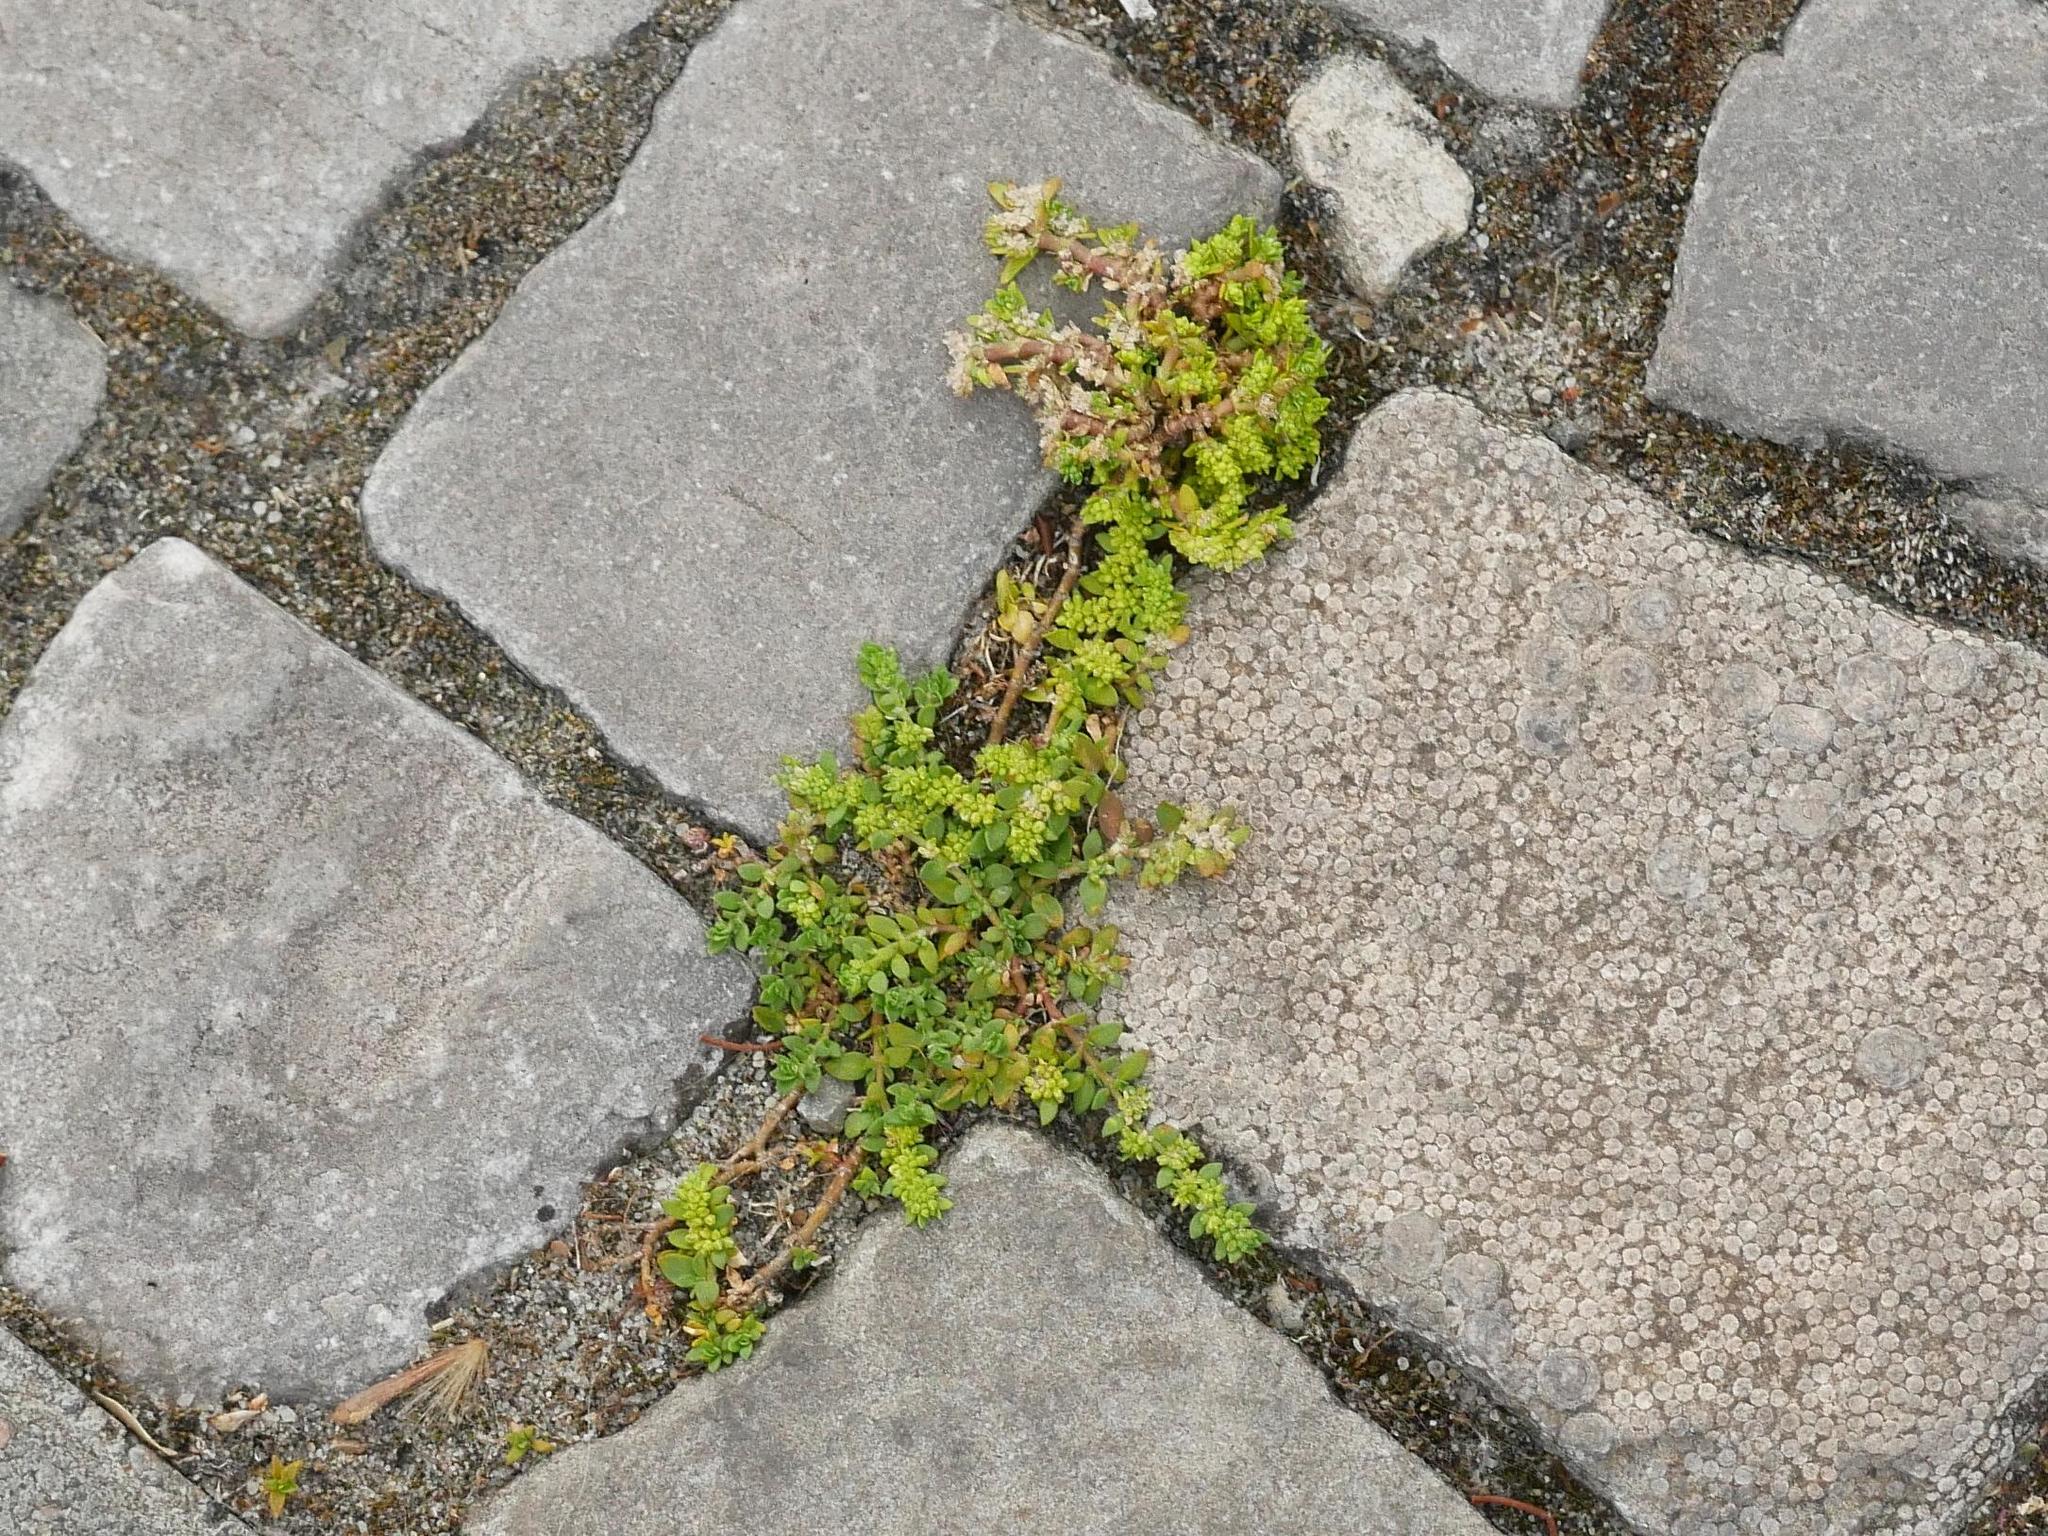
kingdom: Plantae
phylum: Tracheophyta
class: Magnoliopsida
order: Caryophyllales
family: Caryophyllaceae
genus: Herniaria
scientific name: Herniaria glabra
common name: Smooth rupturewort
